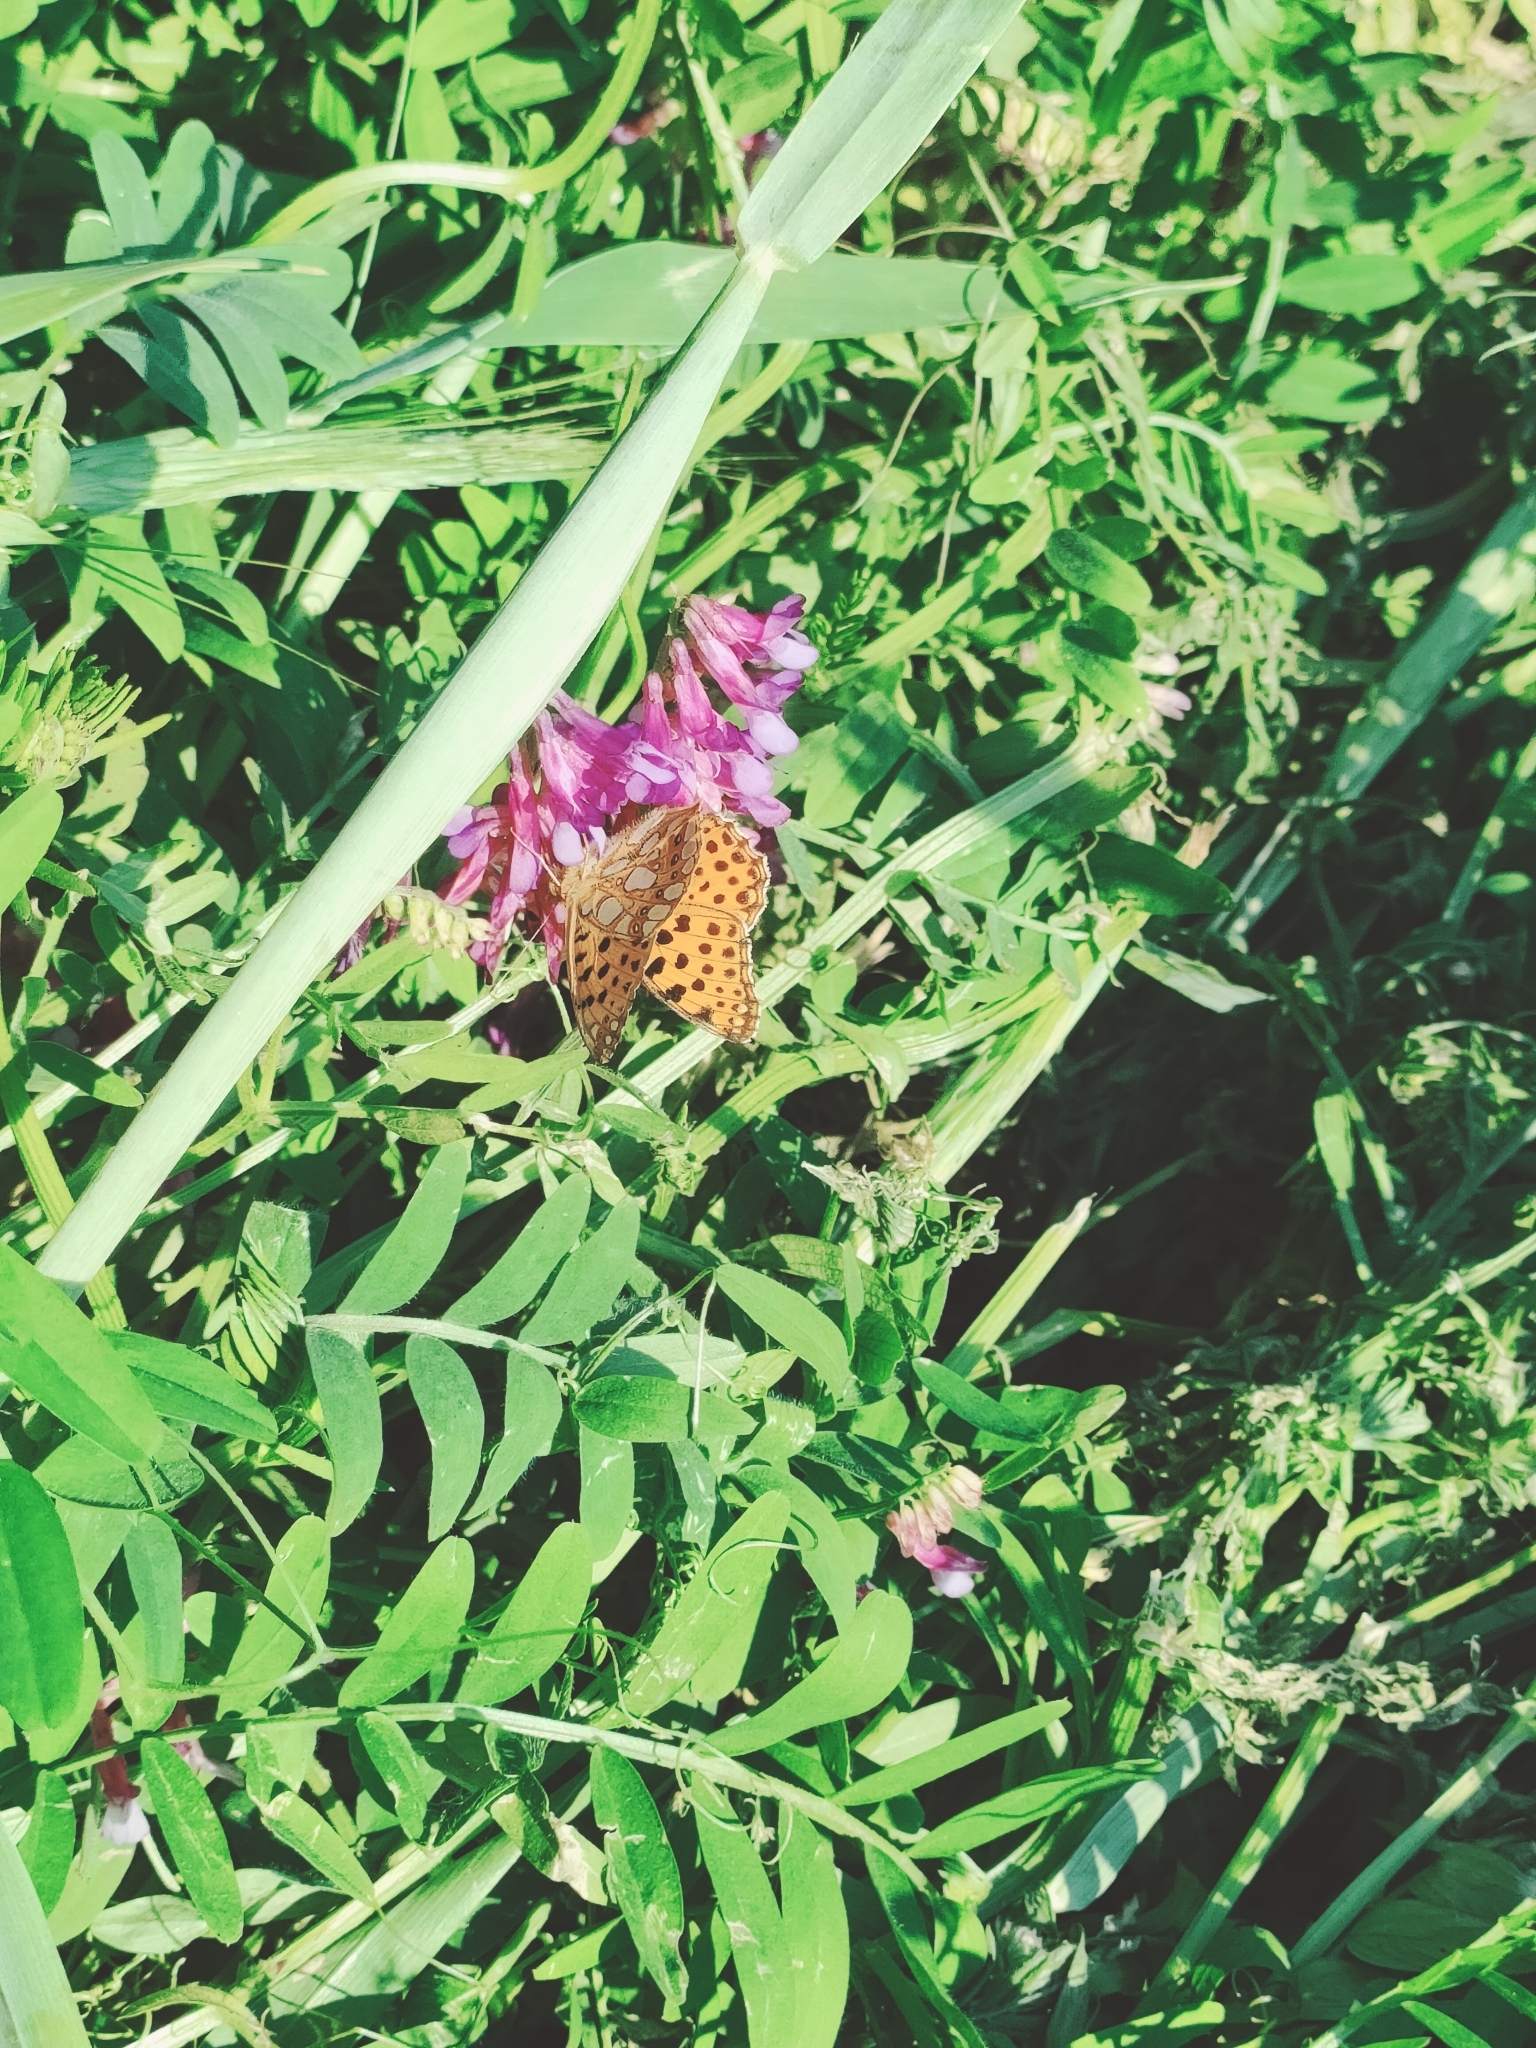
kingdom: Animalia
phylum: Arthropoda
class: Insecta
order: Lepidoptera
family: Nymphalidae
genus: Issoria
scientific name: Issoria lathonia
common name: Queen of spain fritillary
